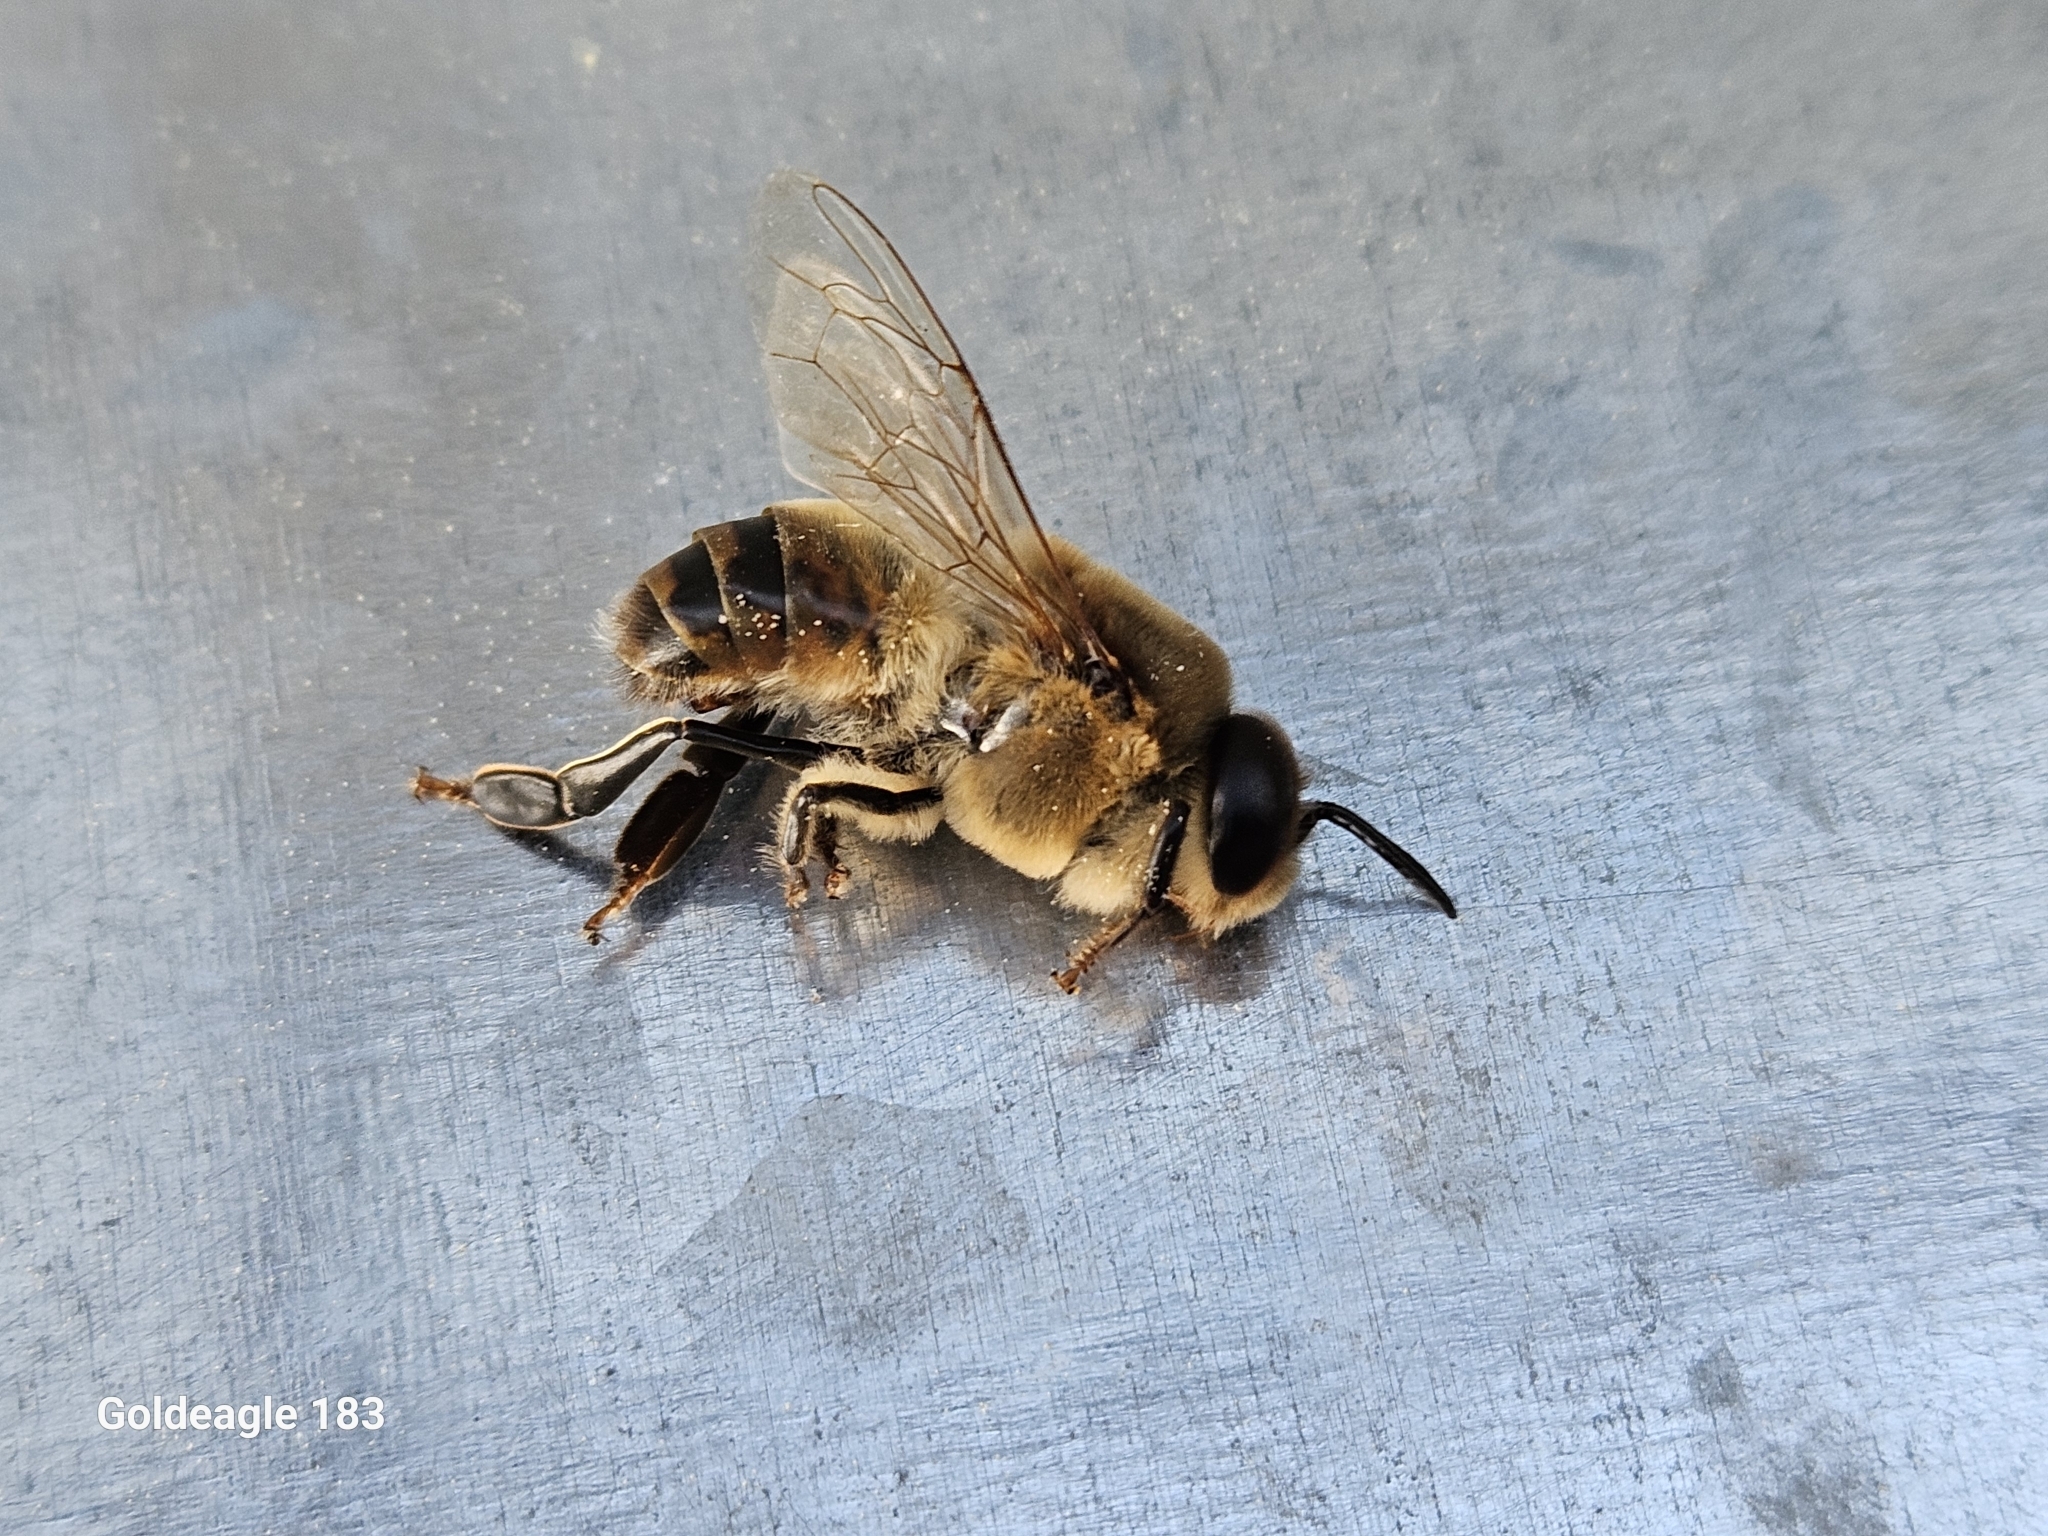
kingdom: Animalia
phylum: Arthropoda
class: Insecta
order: Hymenoptera
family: Apidae
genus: Apis
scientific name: Apis mellifera
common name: Honey bee
